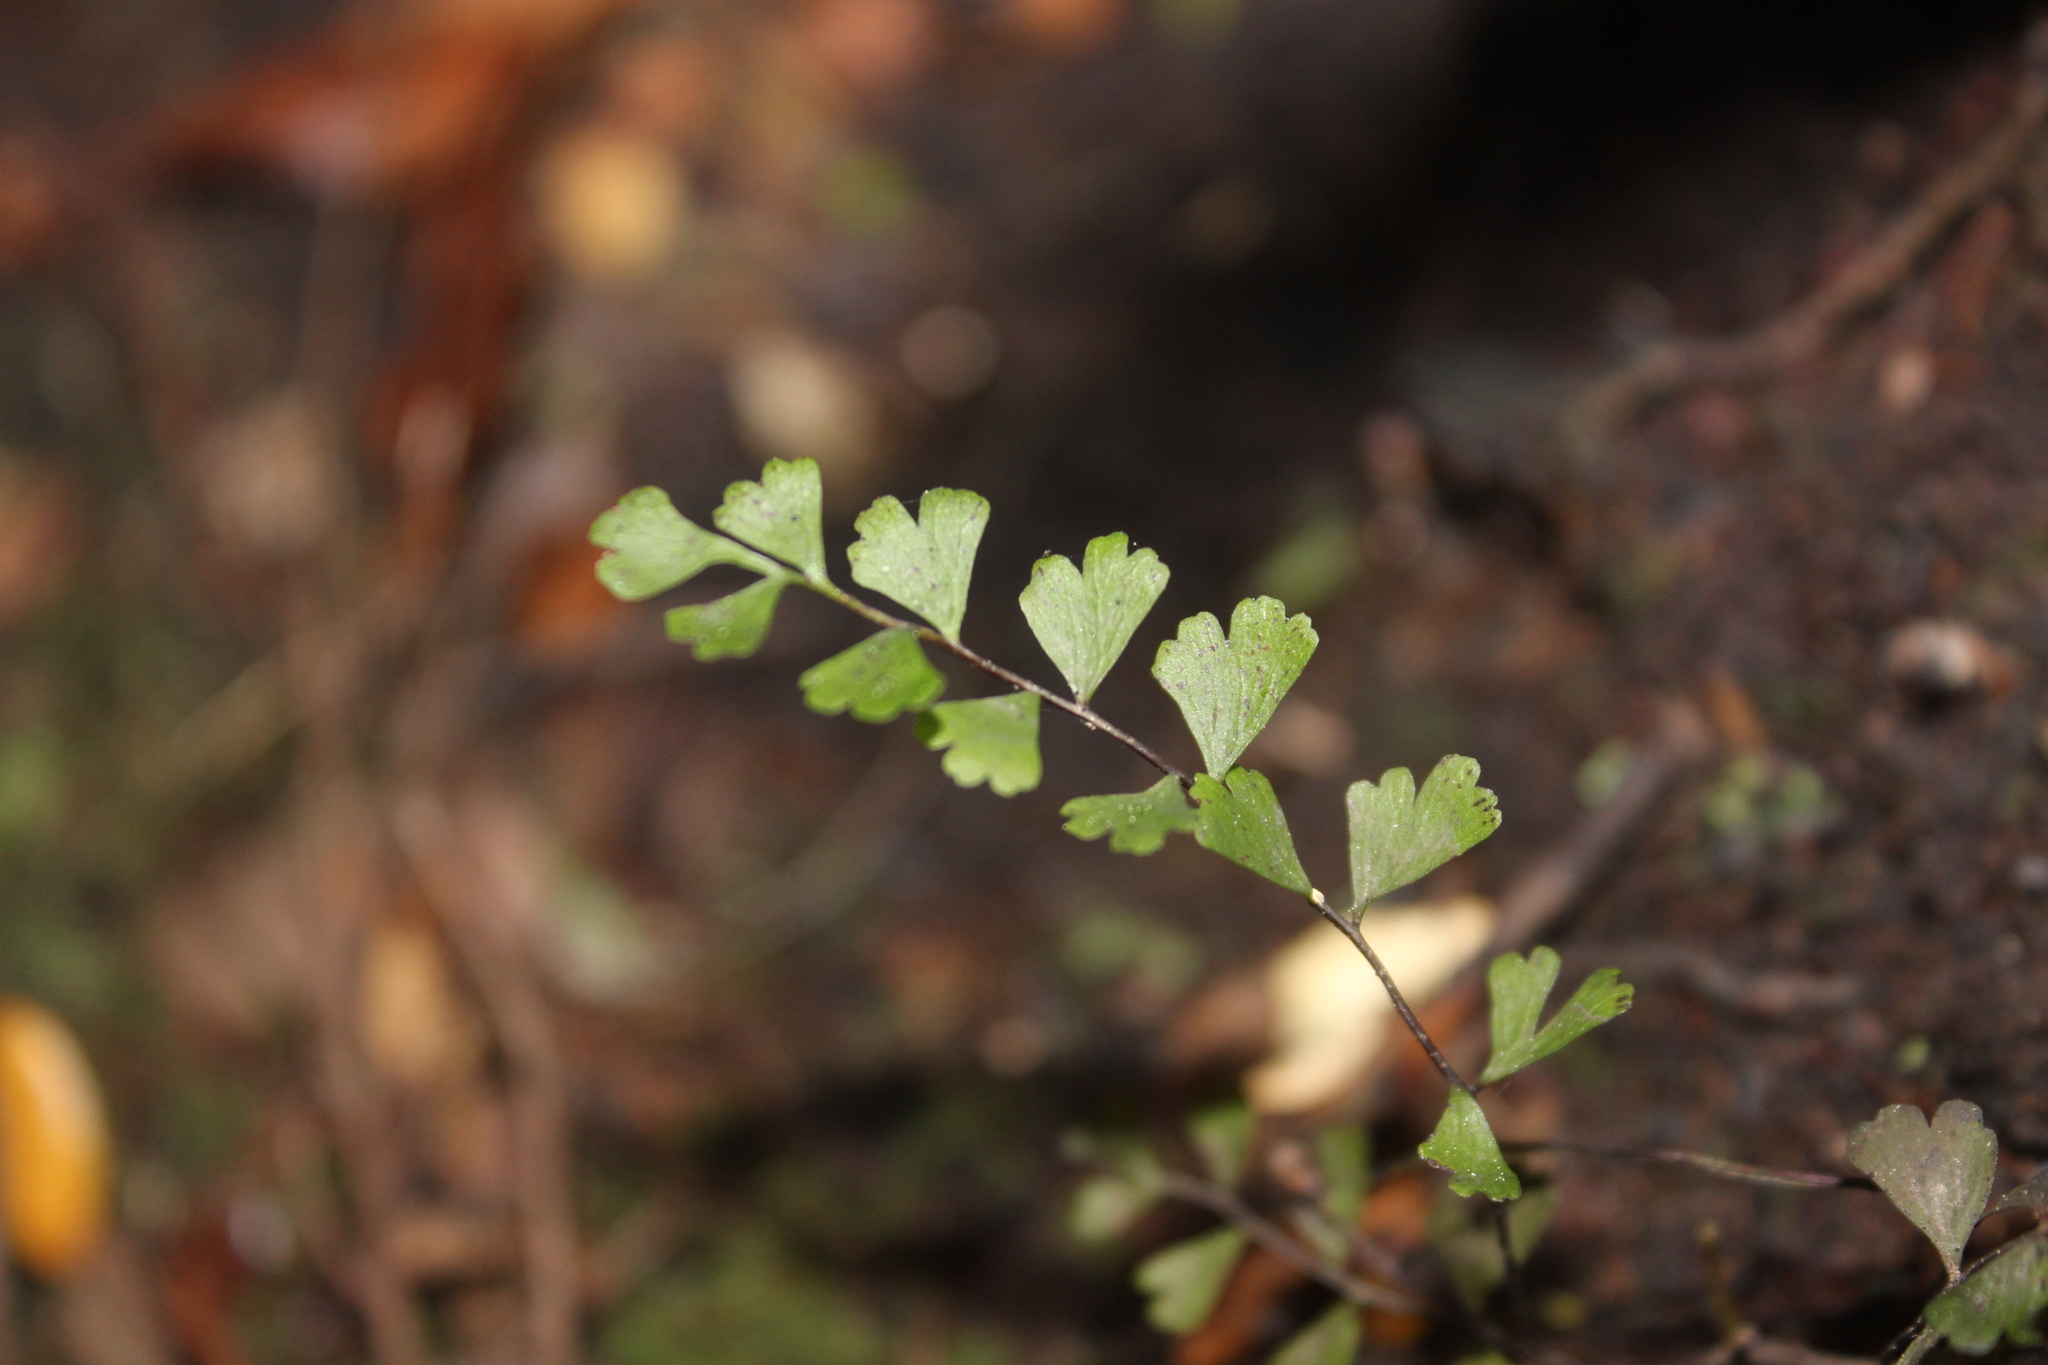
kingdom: Plantae
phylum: Tracheophyta
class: Polypodiopsida
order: Polypodiales
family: Lindsaeaceae
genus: Lindsaea
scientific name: Lindsaea trichomanoides
